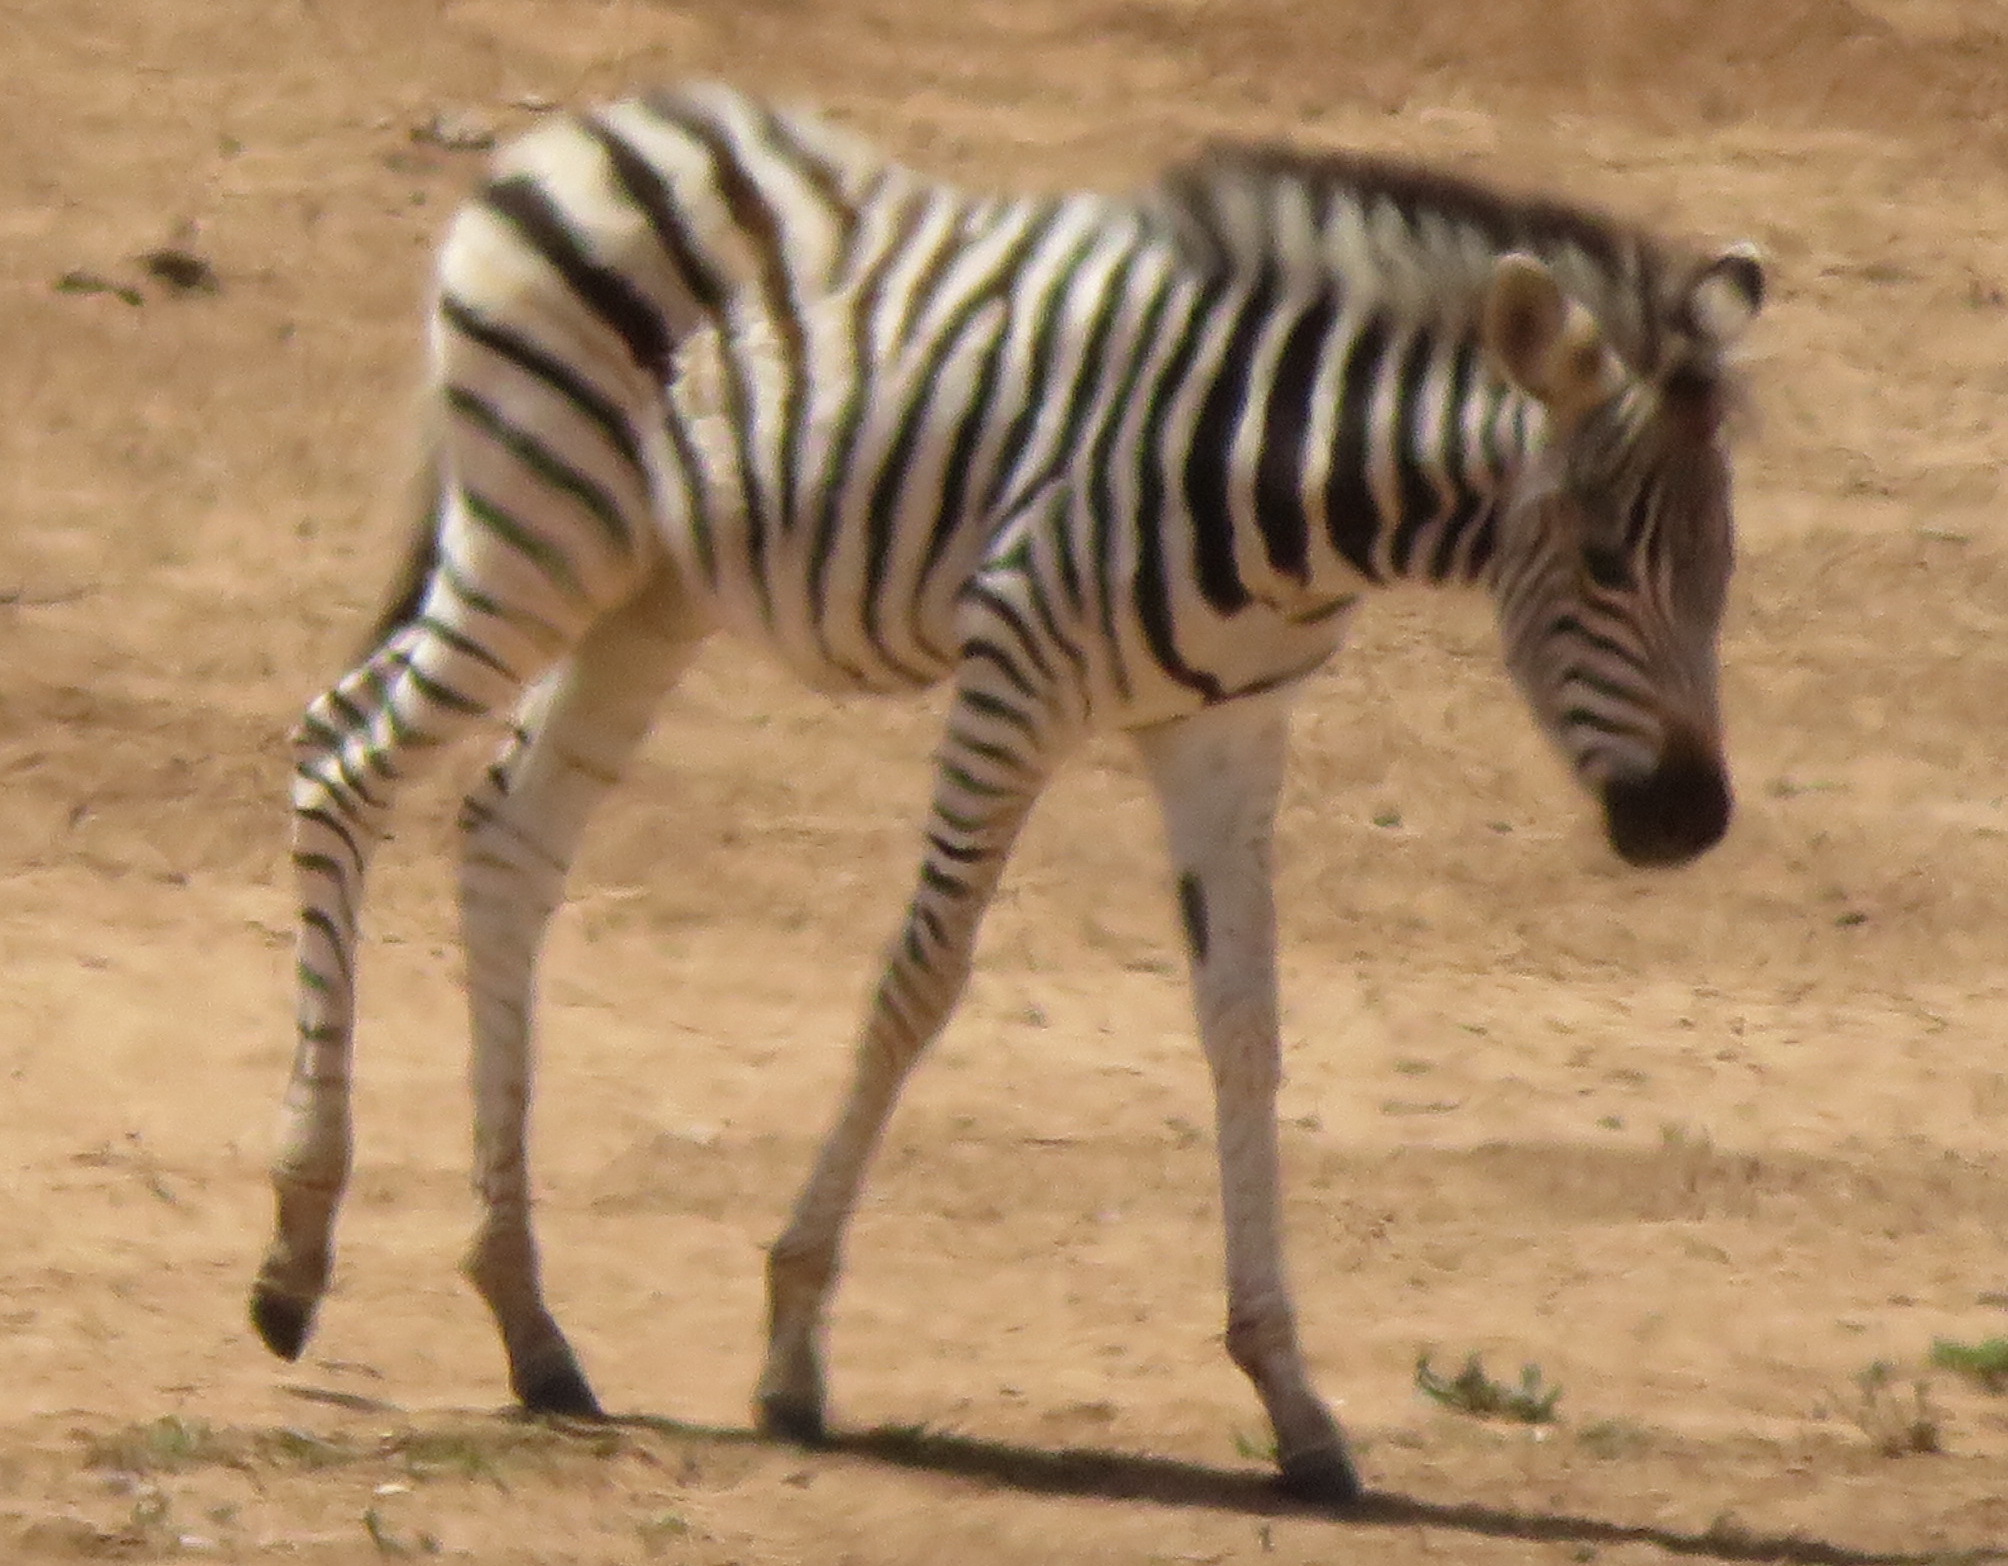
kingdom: Animalia
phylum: Chordata
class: Mammalia
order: Perissodactyla
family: Equidae
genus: Equus
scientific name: Equus quagga
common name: Plains zebra
